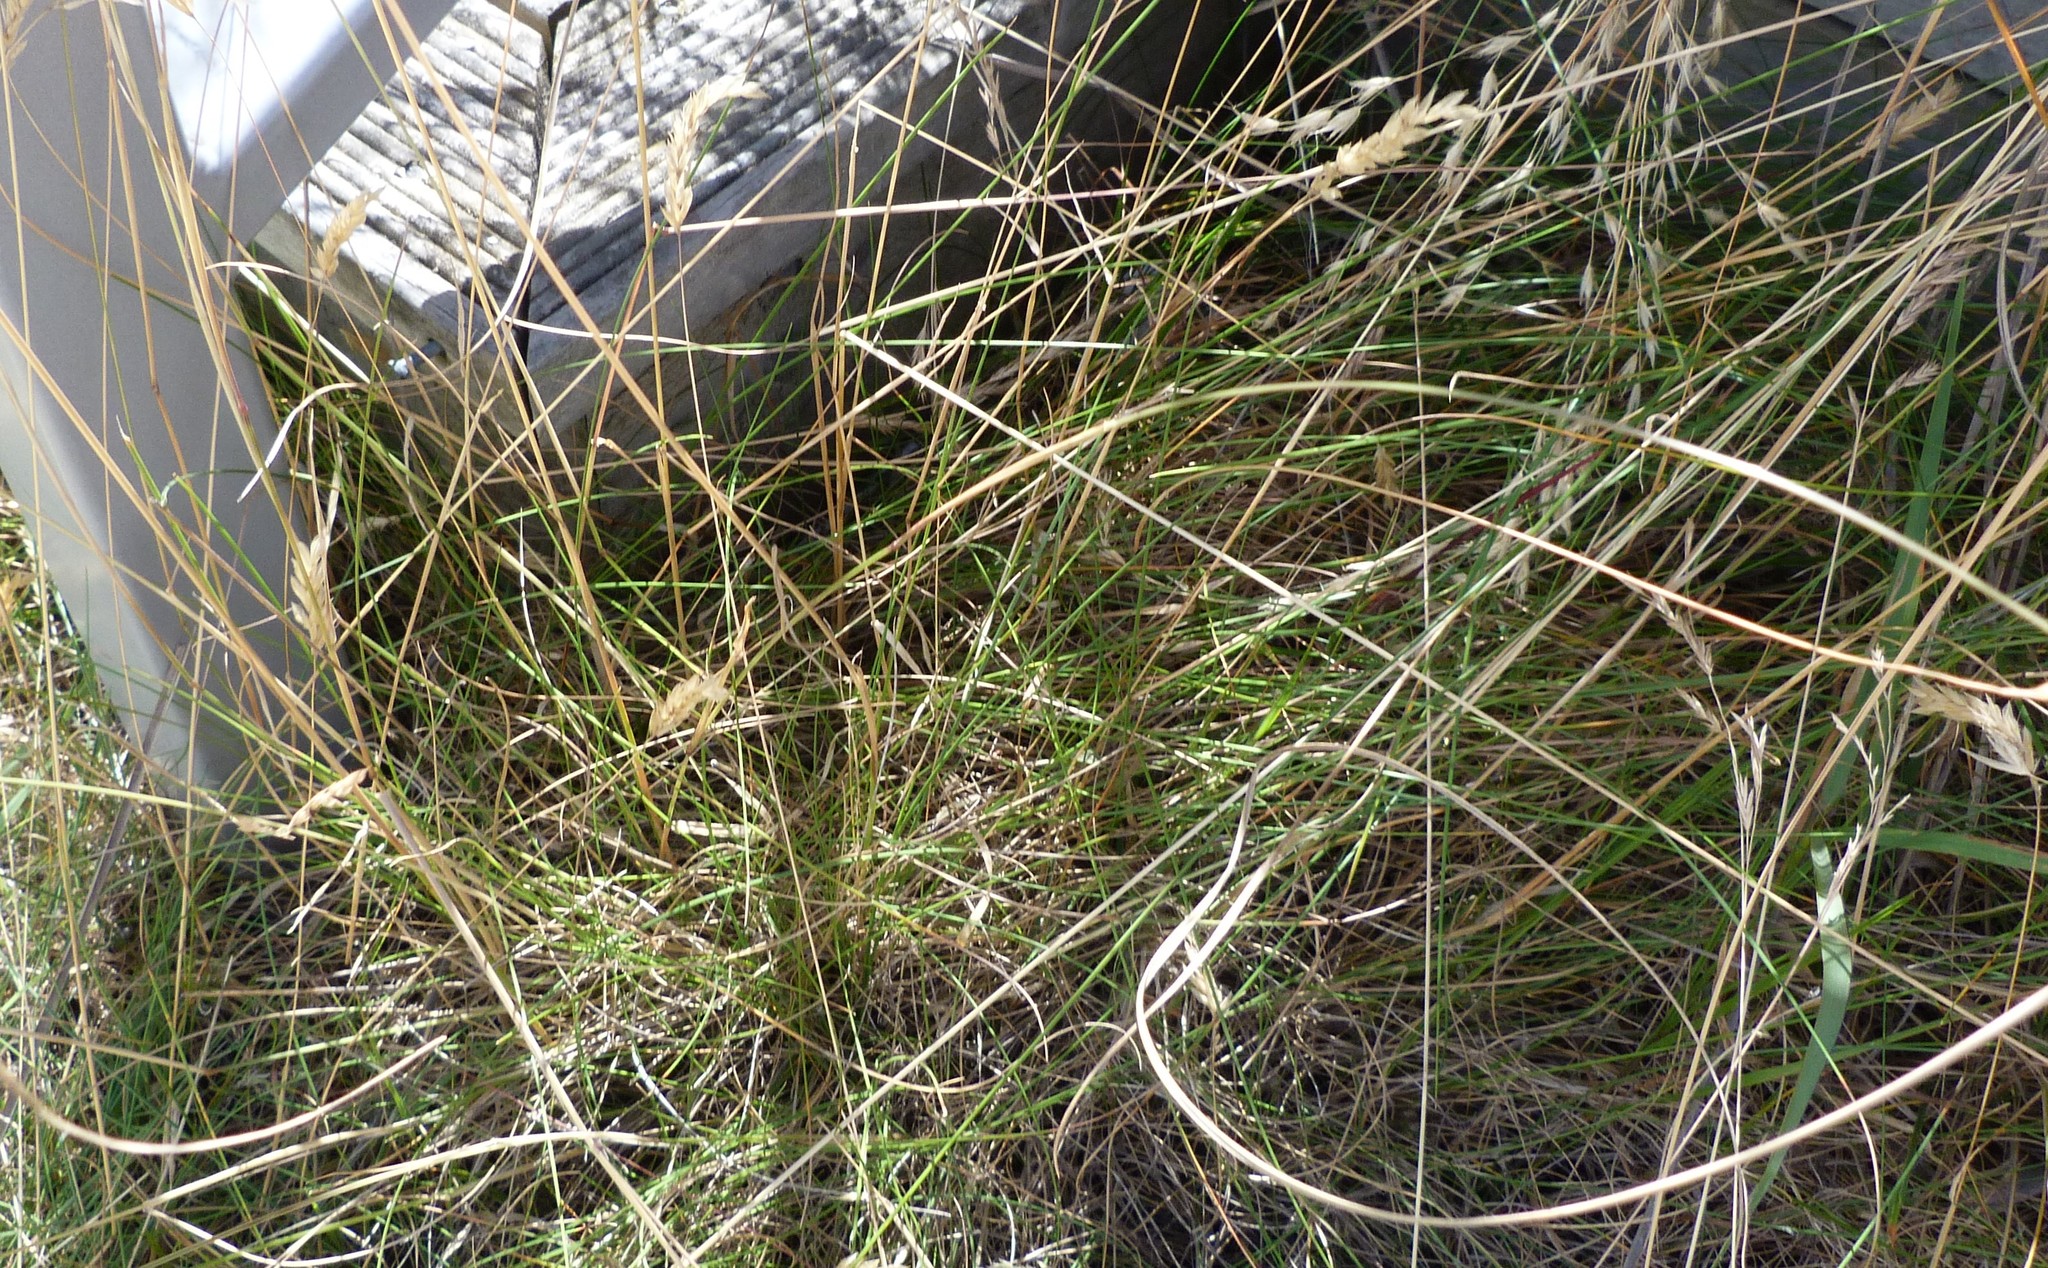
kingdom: Plantae
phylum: Tracheophyta
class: Liliopsida
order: Poales
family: Poaceae
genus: Festuca
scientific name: Festuca rubra
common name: Red fescue
